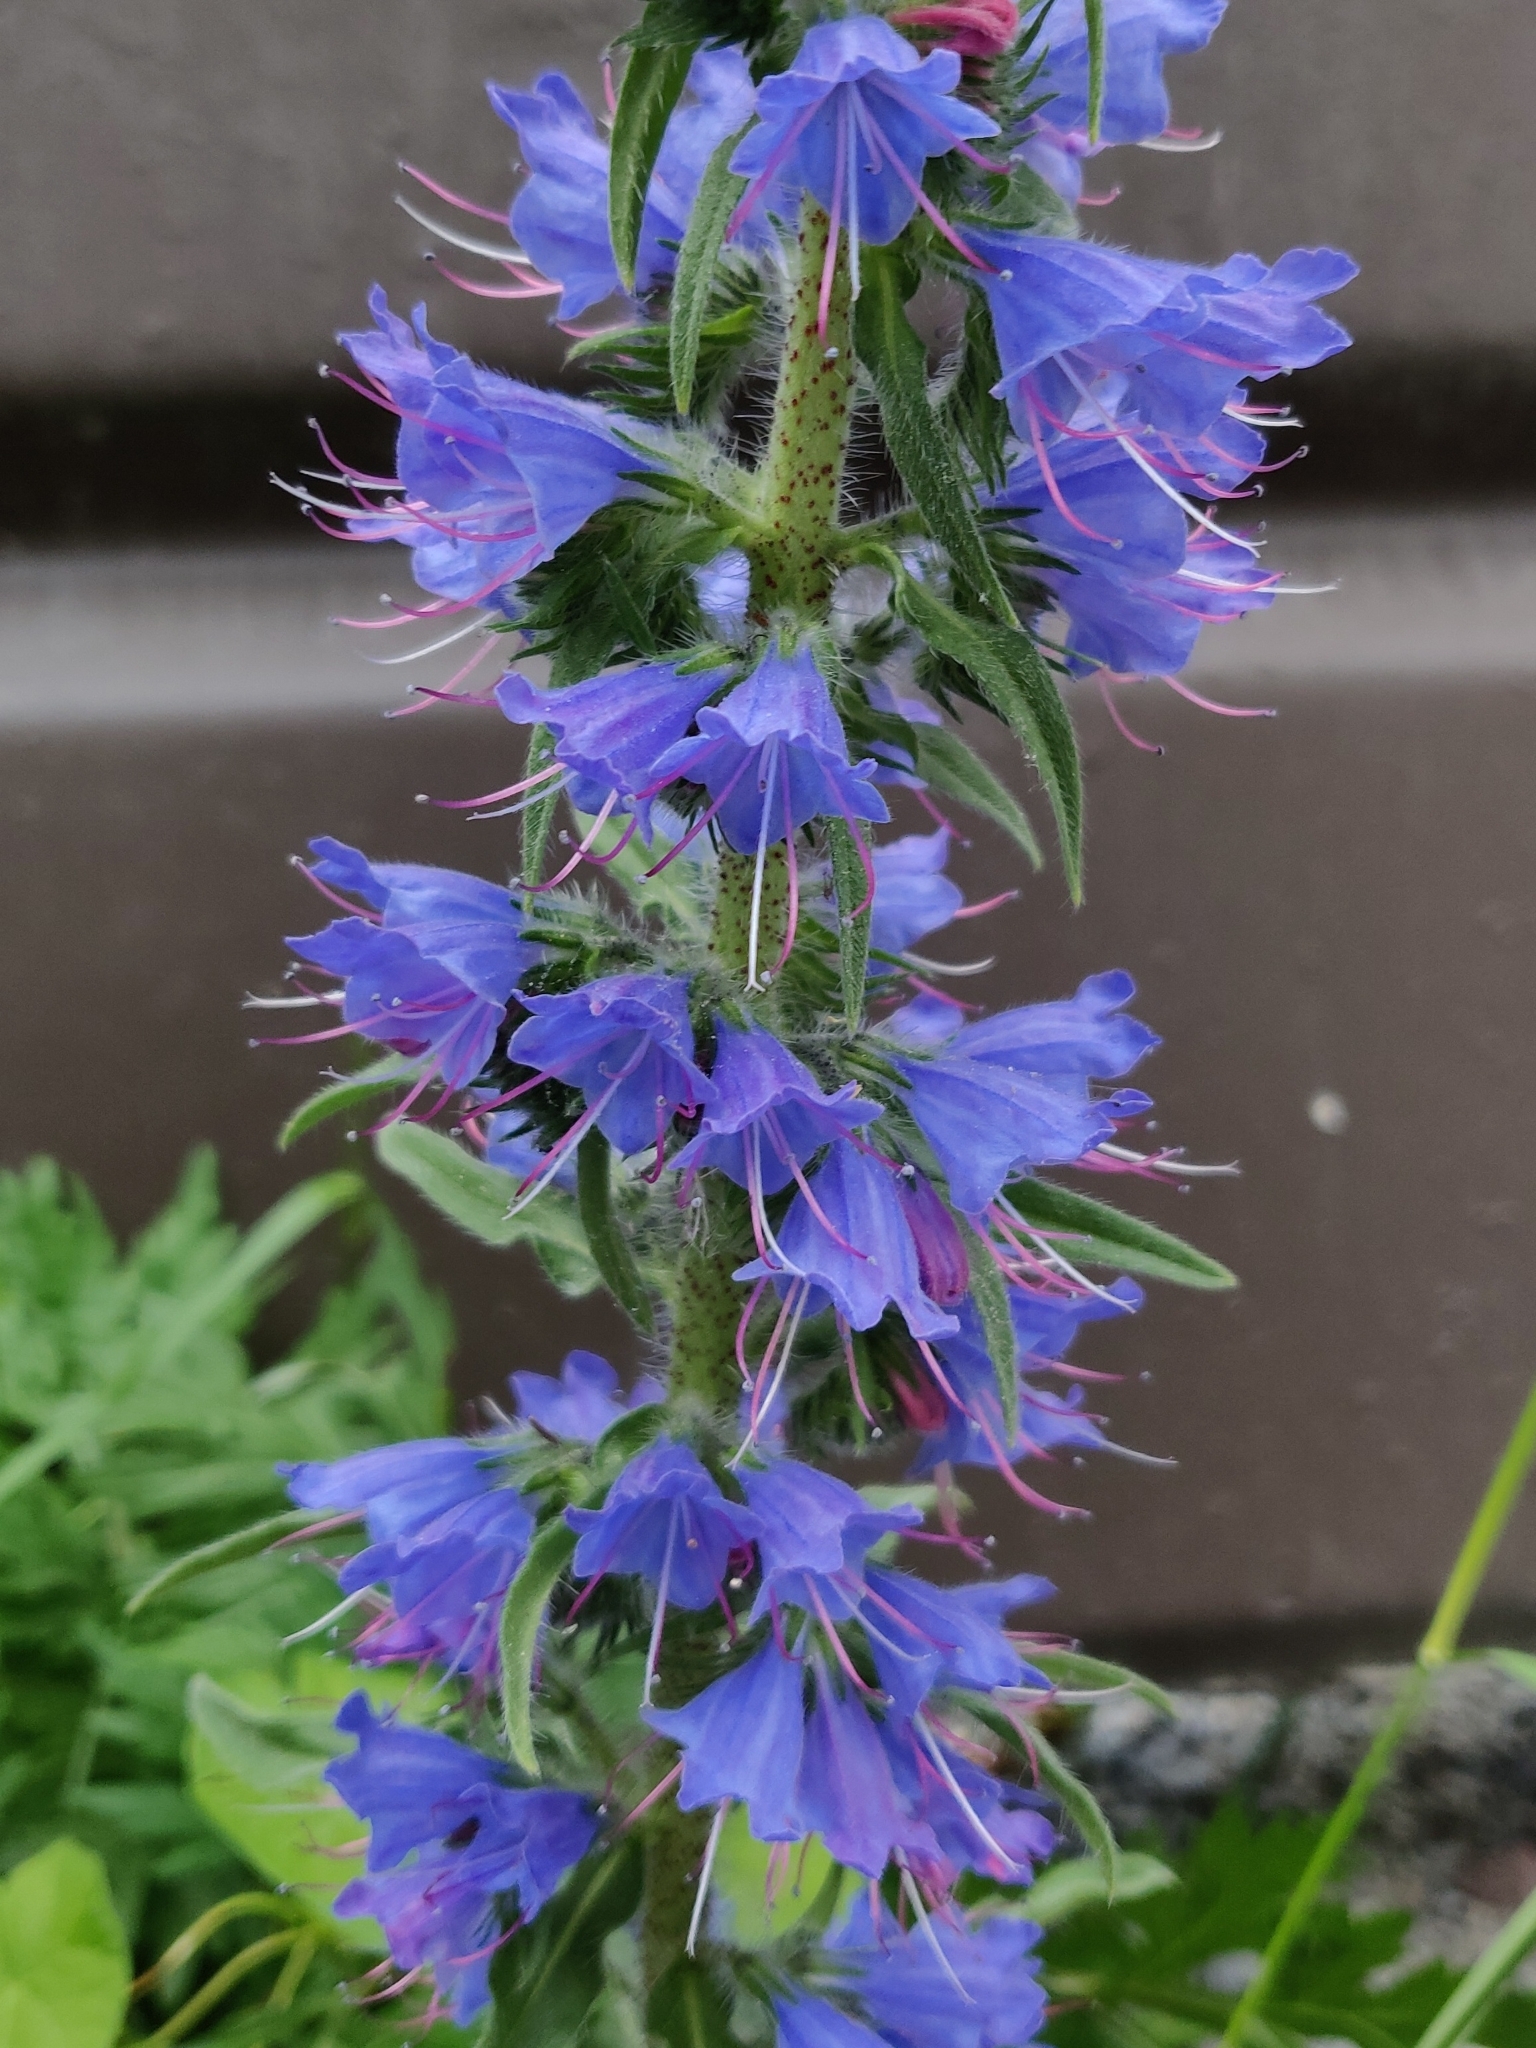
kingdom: Plantae
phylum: Tracheophyta
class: Magnoliopsida
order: Boraginales
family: Boraginaceae
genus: Echium
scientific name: Echium vulgare
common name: Common viper's bugloss
